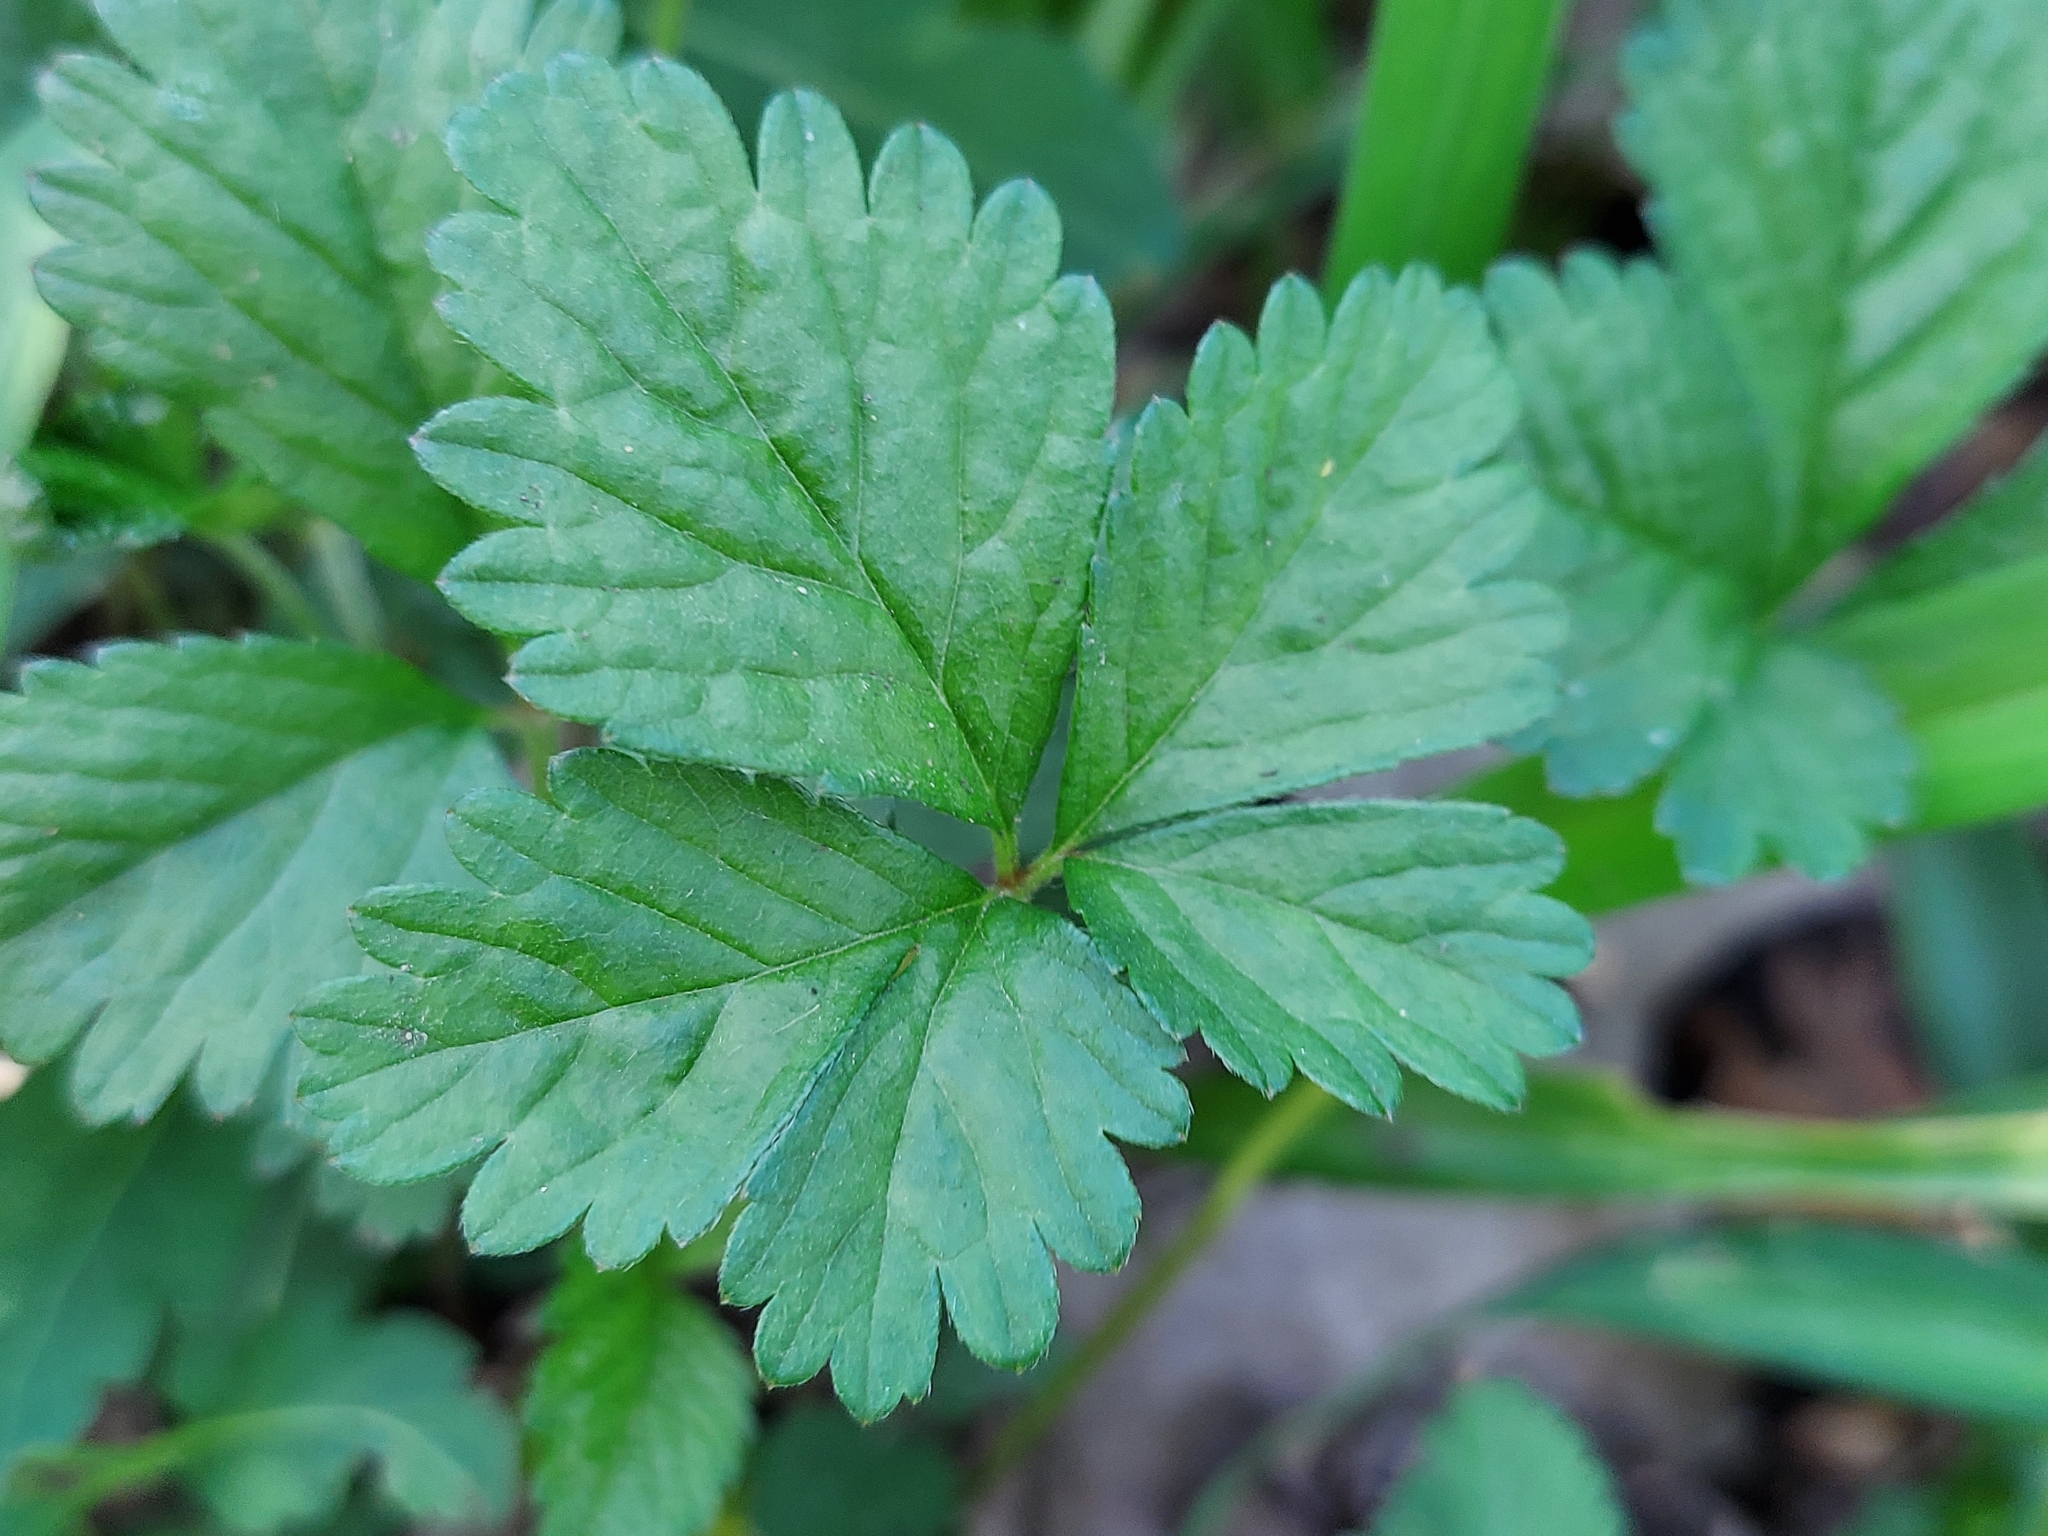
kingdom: Plantae
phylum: Tracheophyta
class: Magnoliopsida
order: Rosales
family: Rosaceae
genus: Potentilla
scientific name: Potentilla indica
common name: Yellow-flowered strawberry
